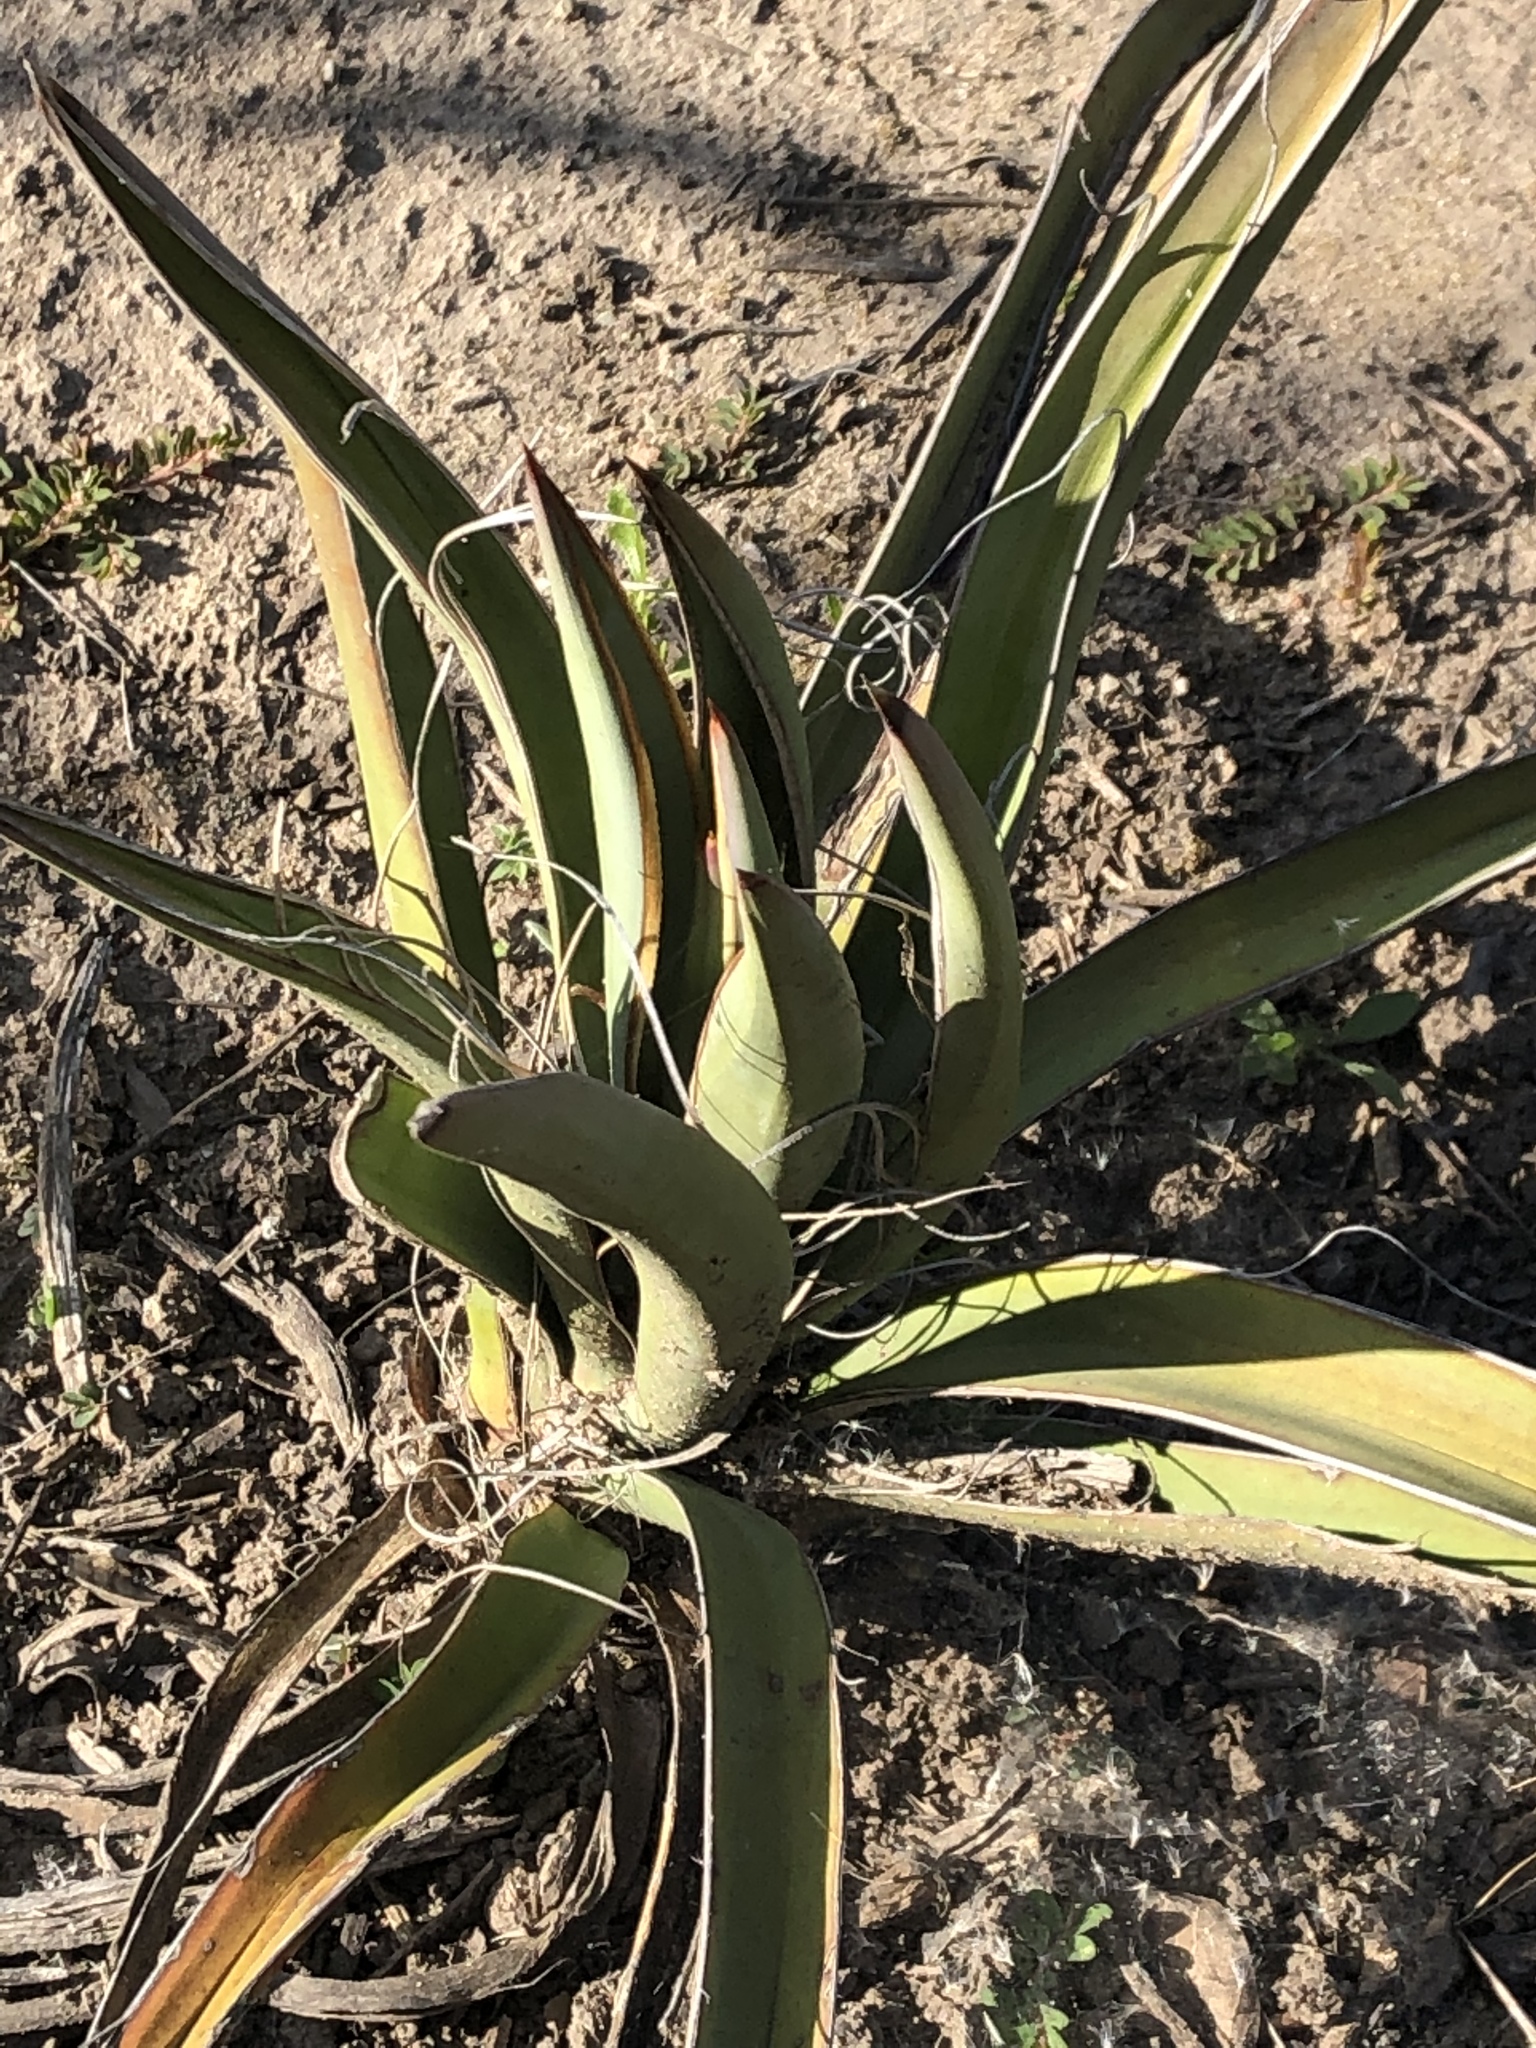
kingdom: Plantae
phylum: Tracheophyta
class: Liliopsida
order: Asparagales
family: Asparagaceae
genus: Yucca
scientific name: Yucca schidigera
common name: Mojave yucca
